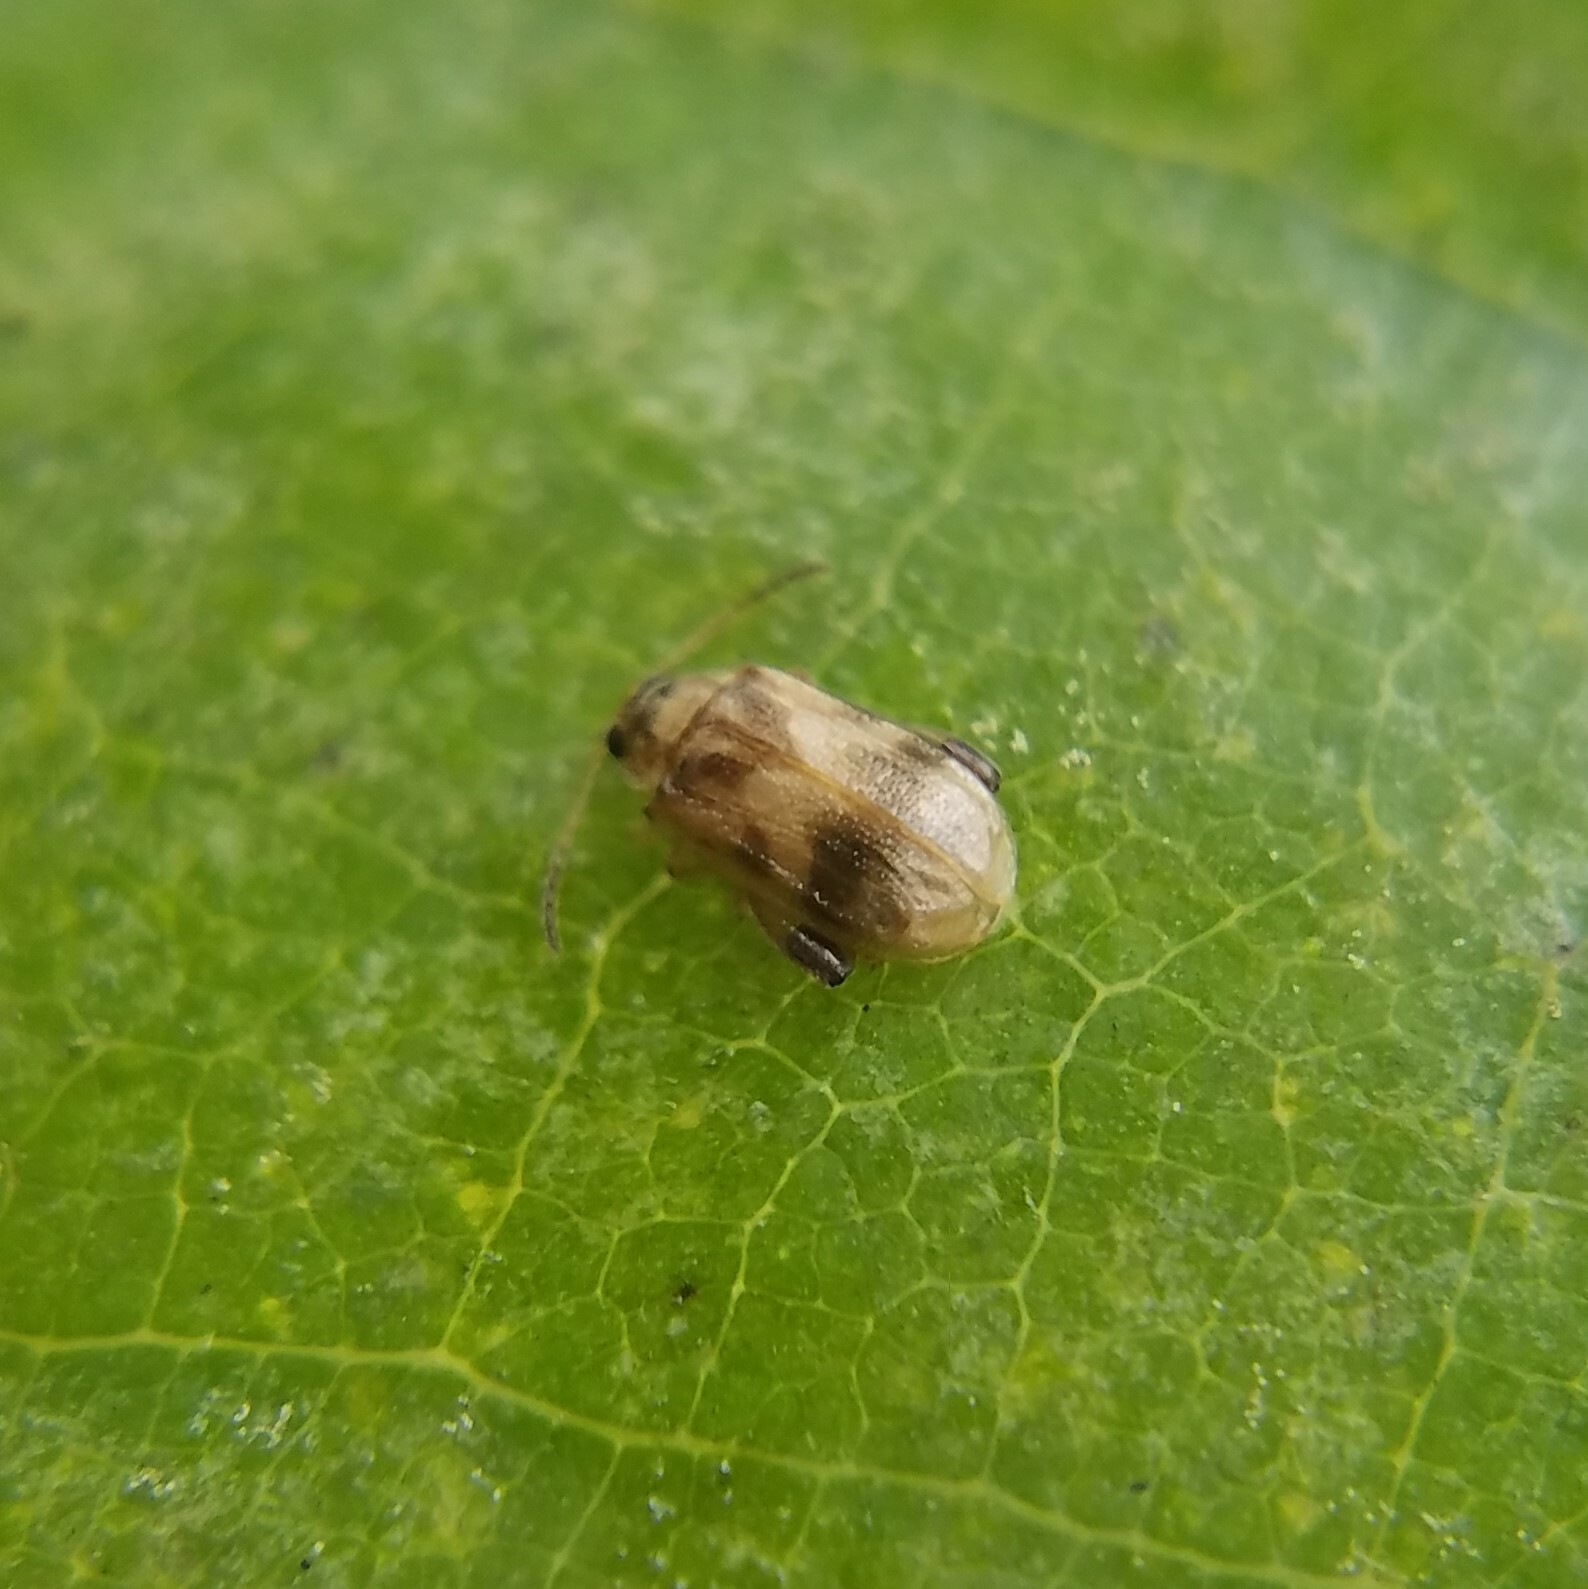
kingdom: Animalia
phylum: Arthropoda
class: Insecta
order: Coleoptera
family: Chrysomelidae
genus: Capraita
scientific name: Capraita sexmaculata
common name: Charlie brown flea beetle
